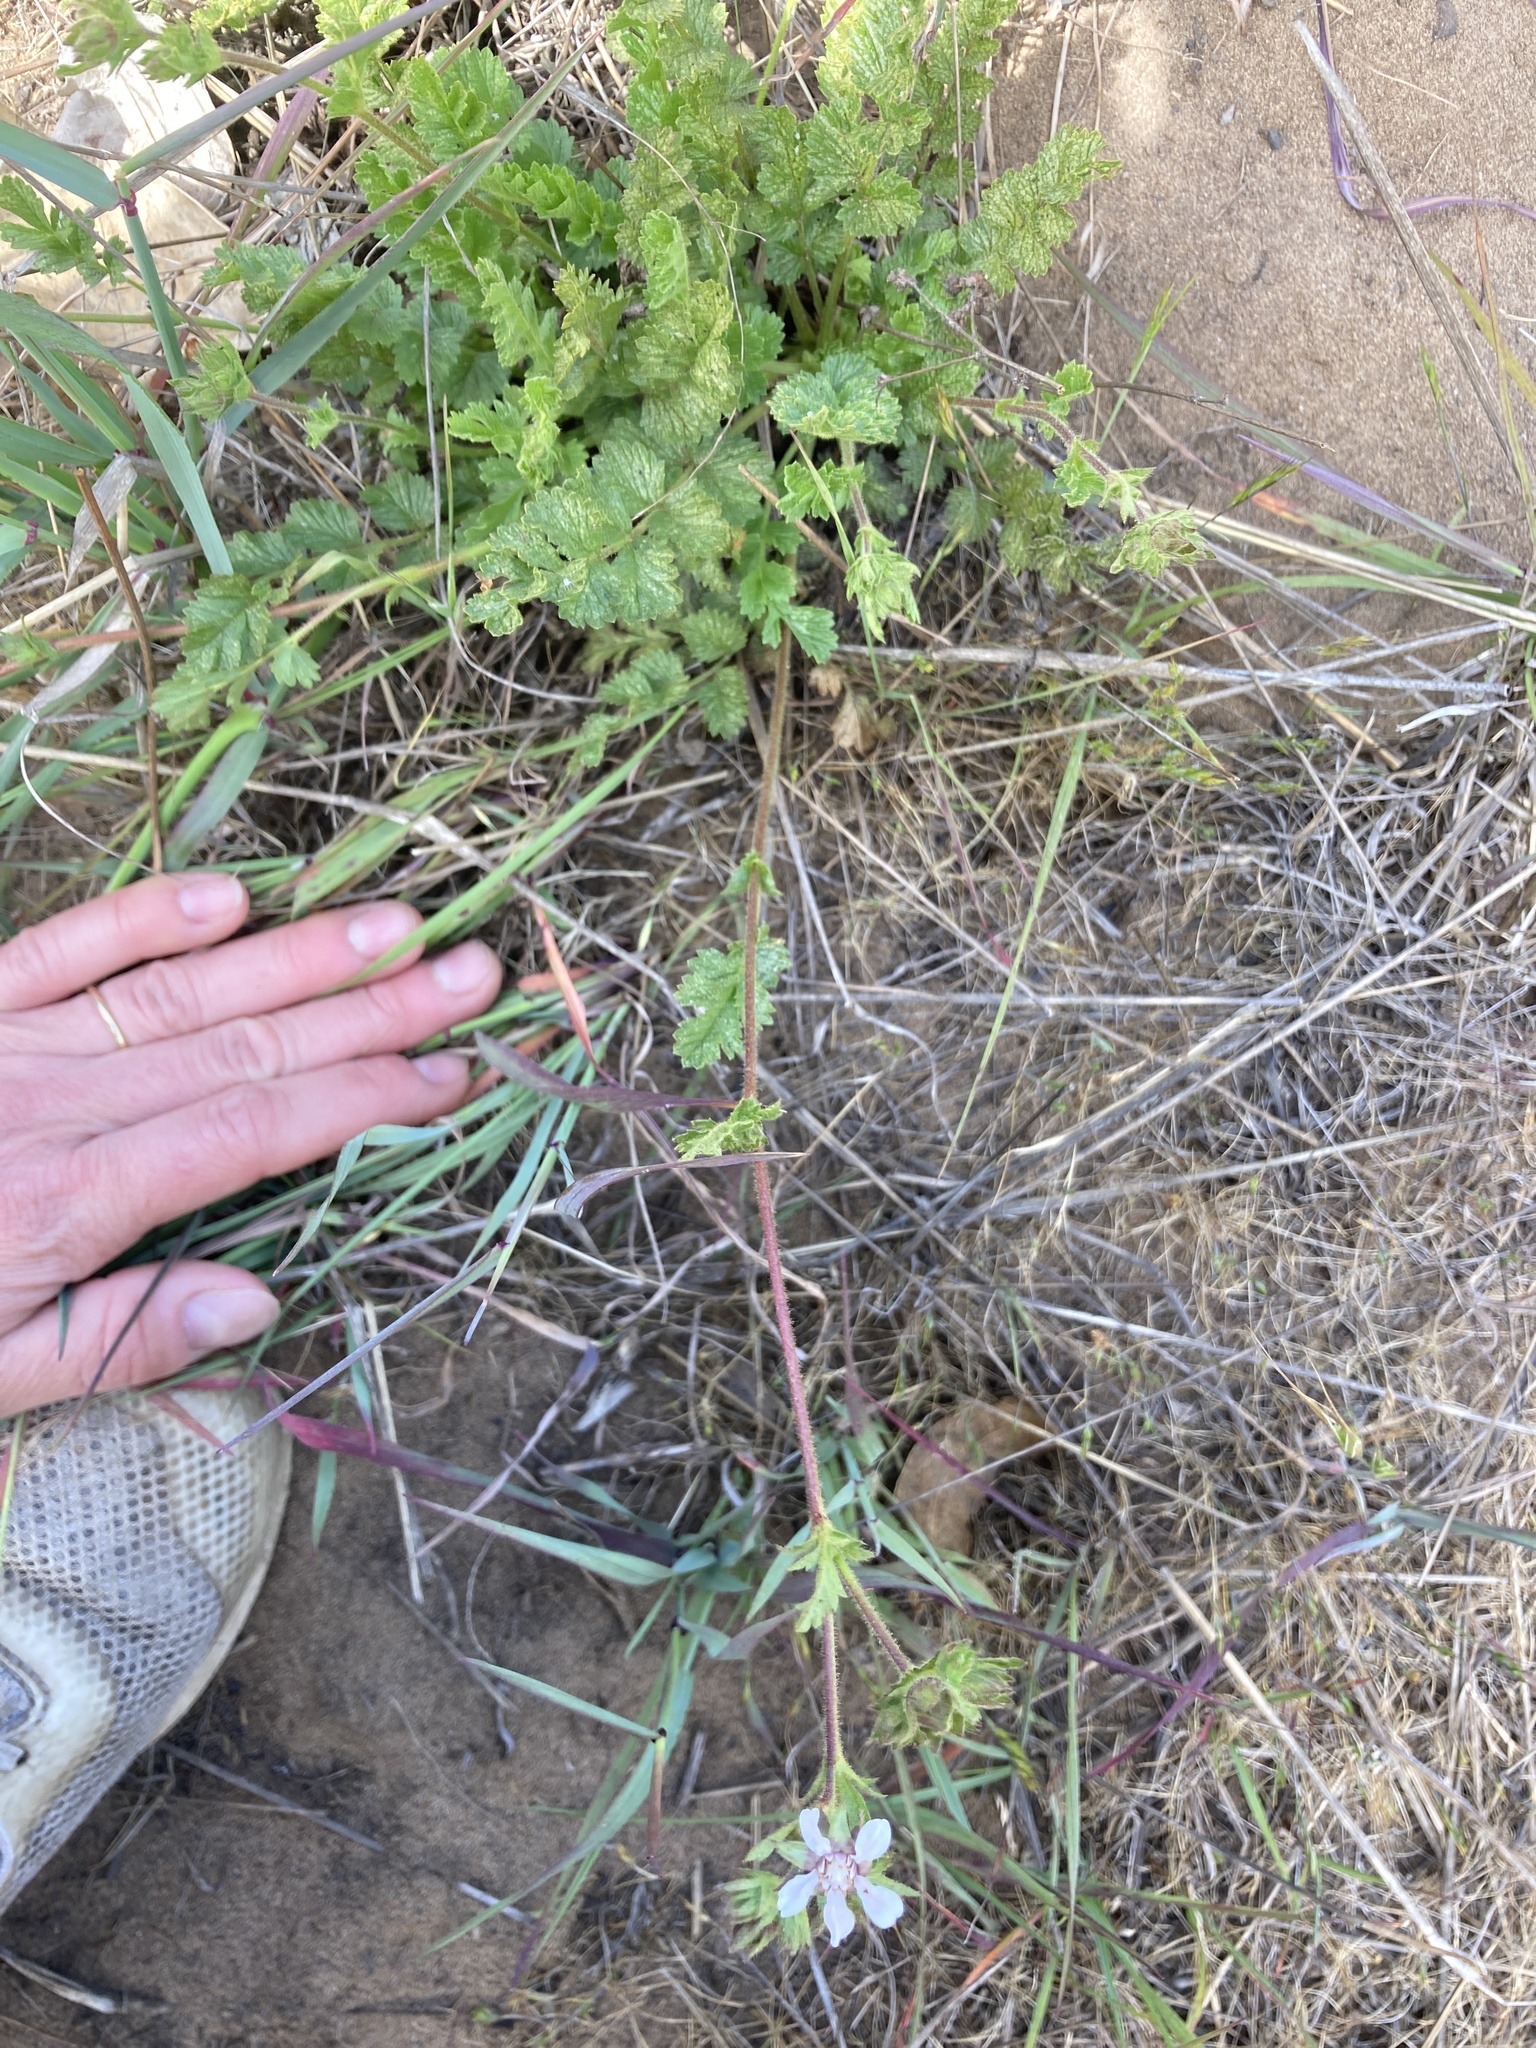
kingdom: Plantae
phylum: Tracheophyta
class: Magnoliopsida
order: Rosales
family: Rosaceae
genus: Potentilla
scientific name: Potentilla
